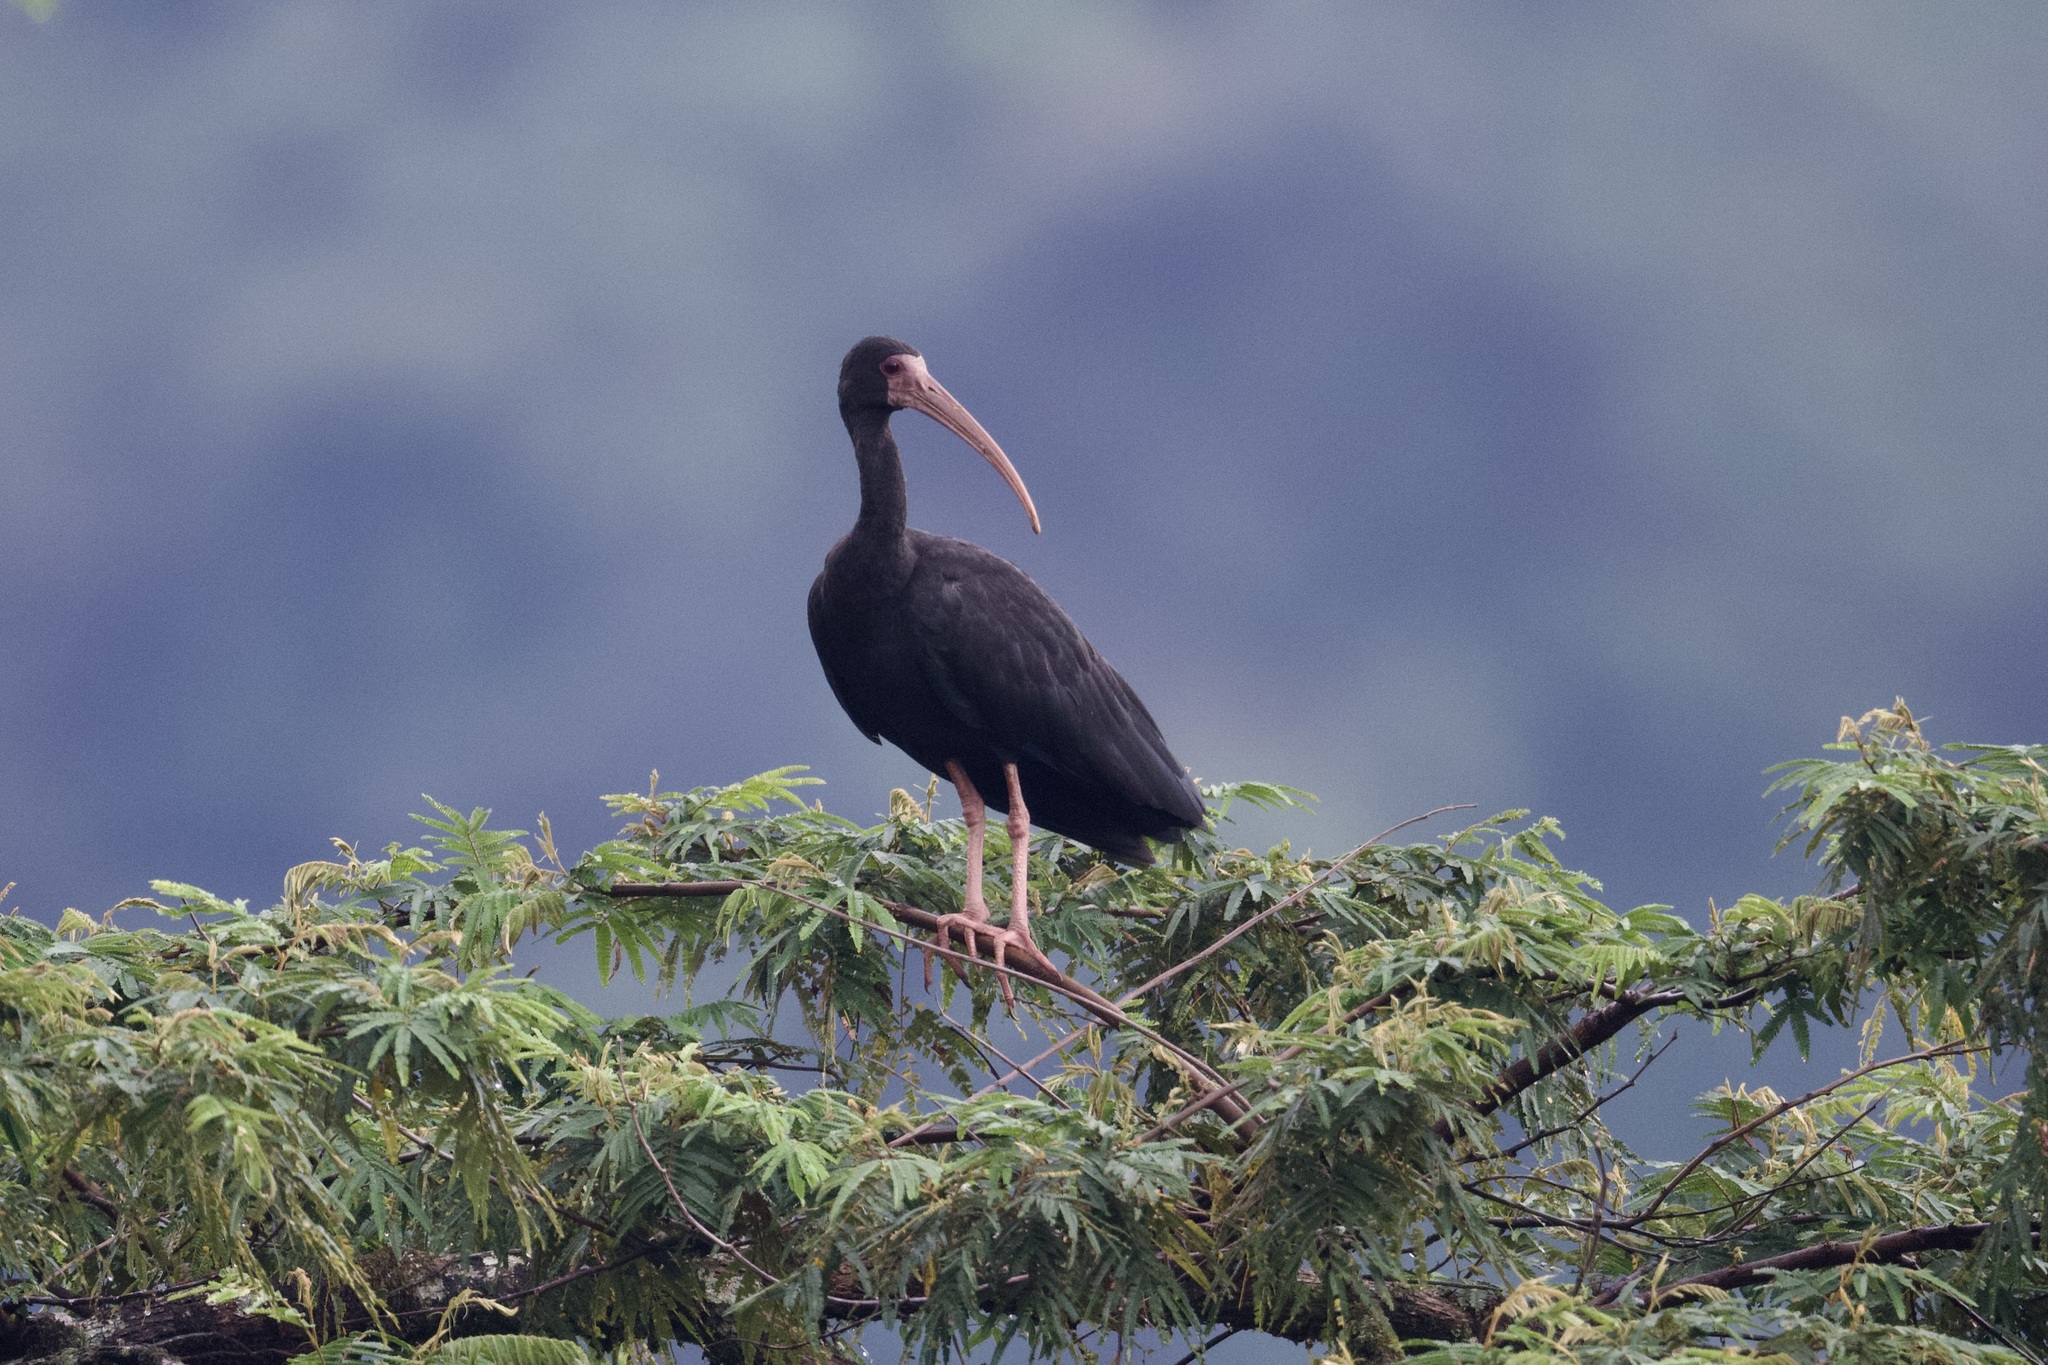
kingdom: Animalia
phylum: Chordata
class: Aves
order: Pelecaniformes
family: Threskiornithidae
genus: Phimosus
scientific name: Phimosus infuscatus
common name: Bare-faced ibis
